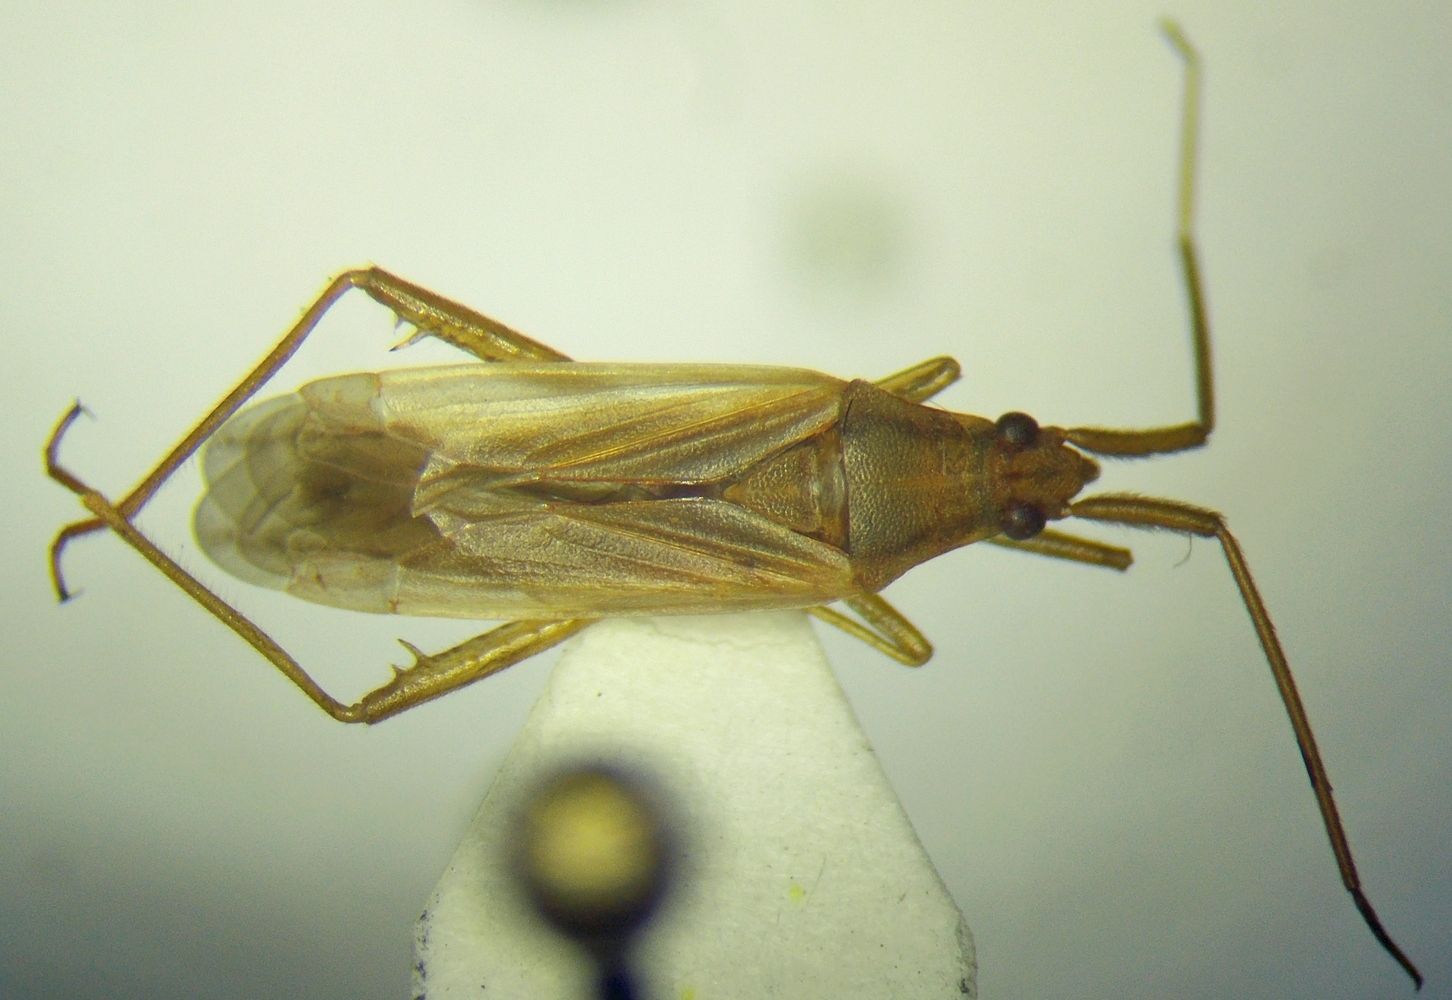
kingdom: Animalia
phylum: Arthropoda
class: Insecta
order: Hemiptera
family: Miridae
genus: Stenodema
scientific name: Stenodema calcarata
